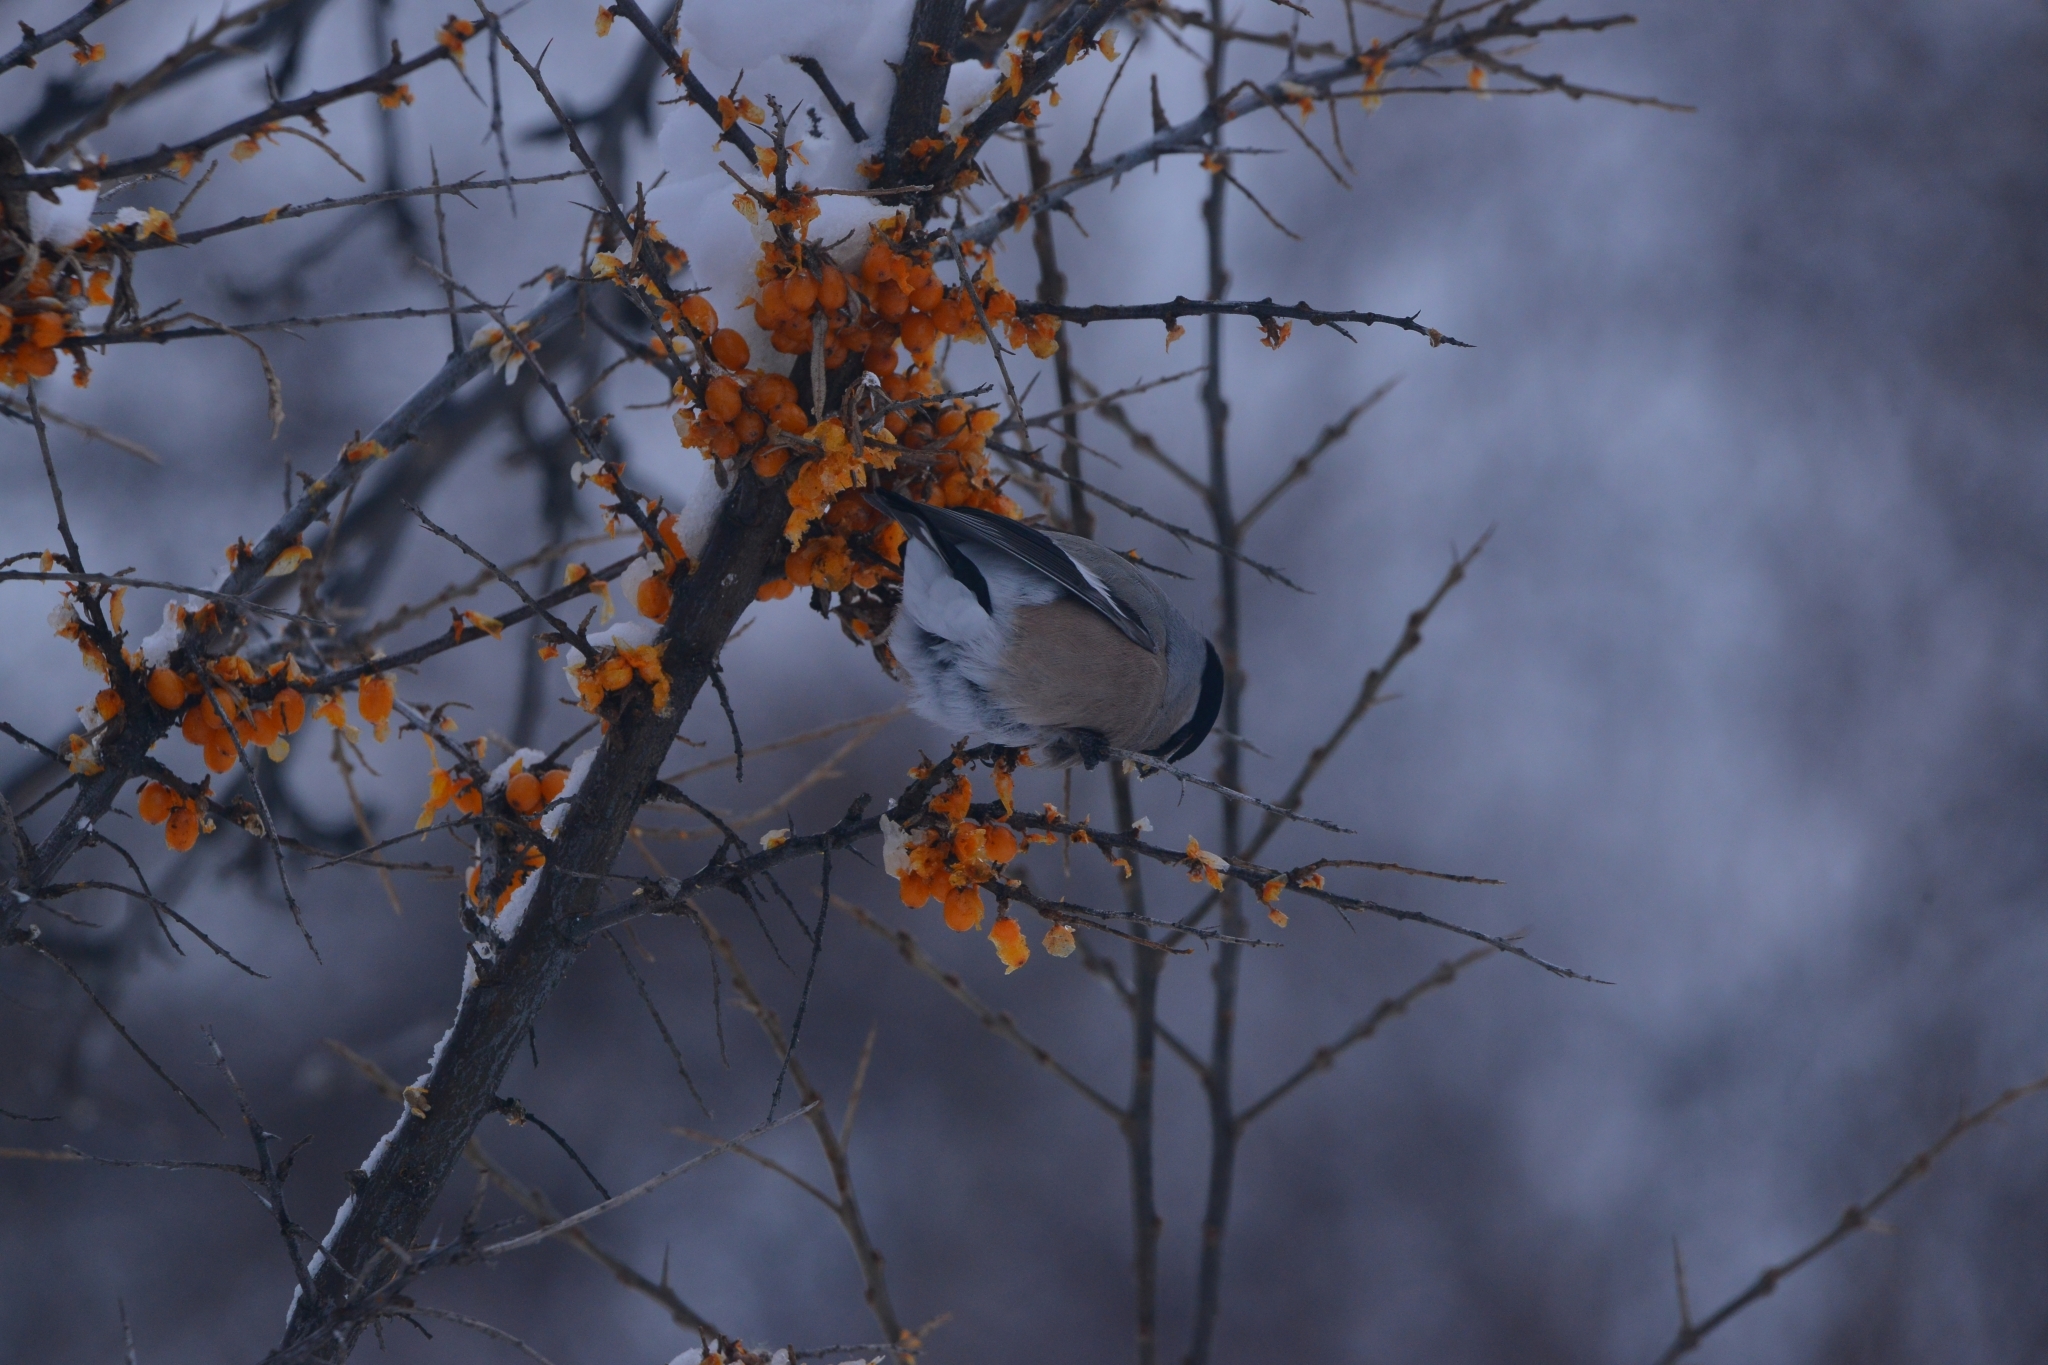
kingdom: Animalia
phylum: Chordata
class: Aves
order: Passeriformes
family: Fringillidae
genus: Pyrrhula
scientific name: Pyrrhula pyrrhula
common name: Eurasian bullfinch
